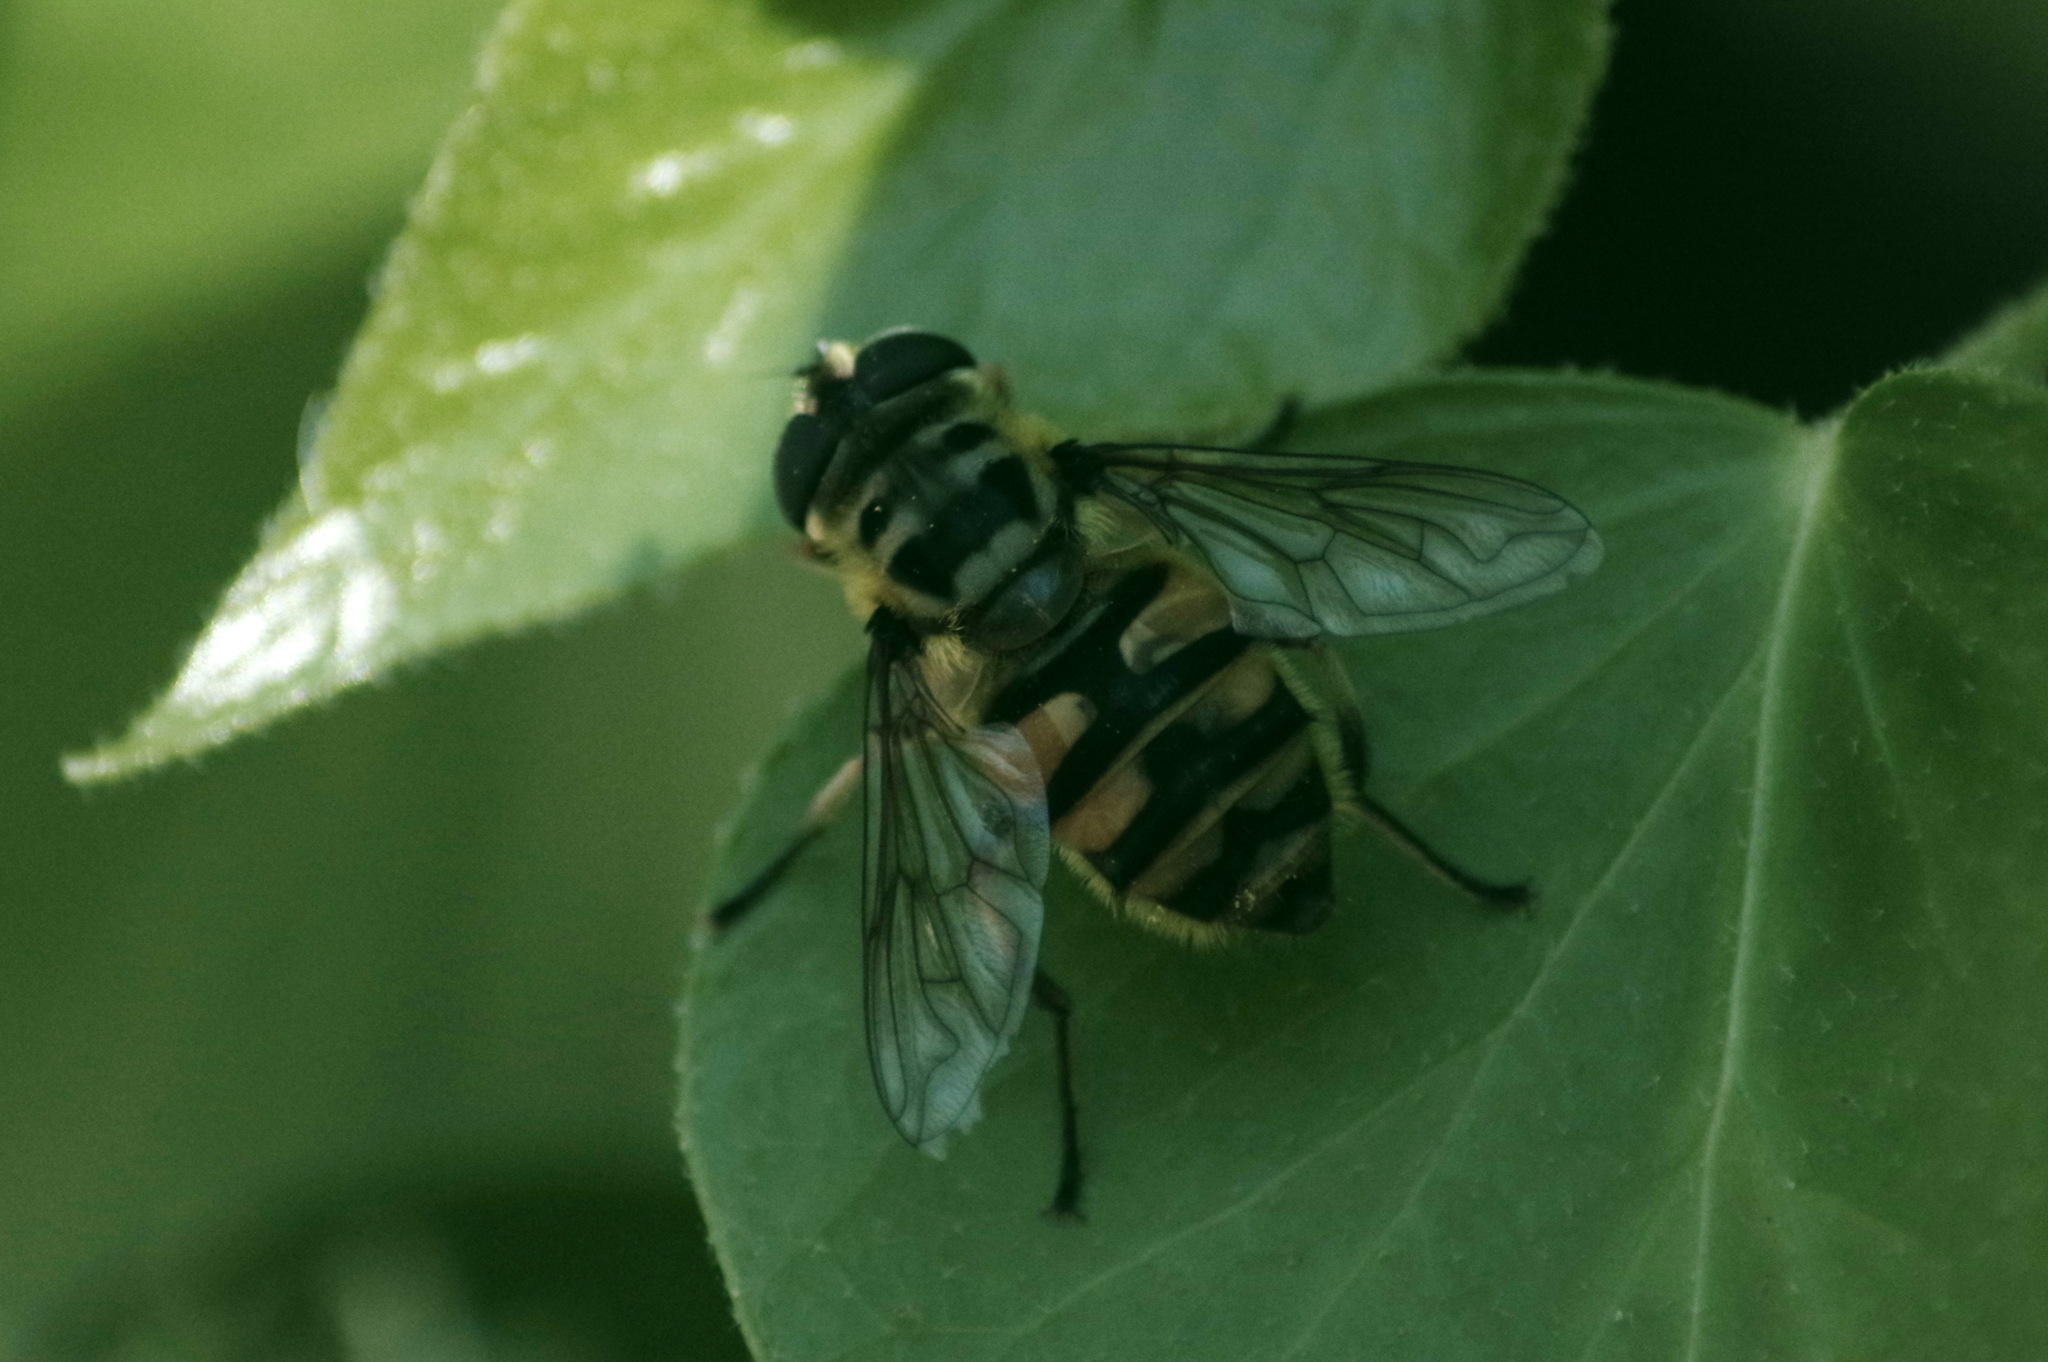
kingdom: Animalia
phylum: Arthropoda
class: Insecta
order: Diptera
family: Syrphidae
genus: Myathropa
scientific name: Myathropa florea
